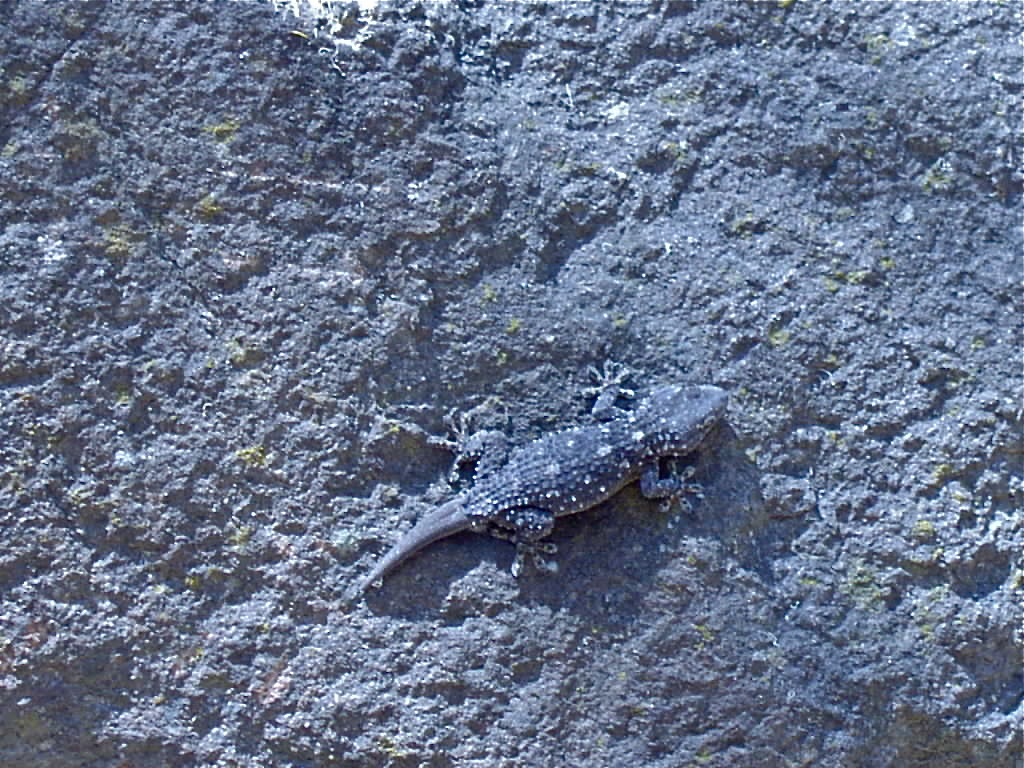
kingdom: Animalia
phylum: Chordata
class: Squamata
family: Phyllodactylidae
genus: Tarentola
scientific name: Tarentola mauritanica
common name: Moorish gecko
